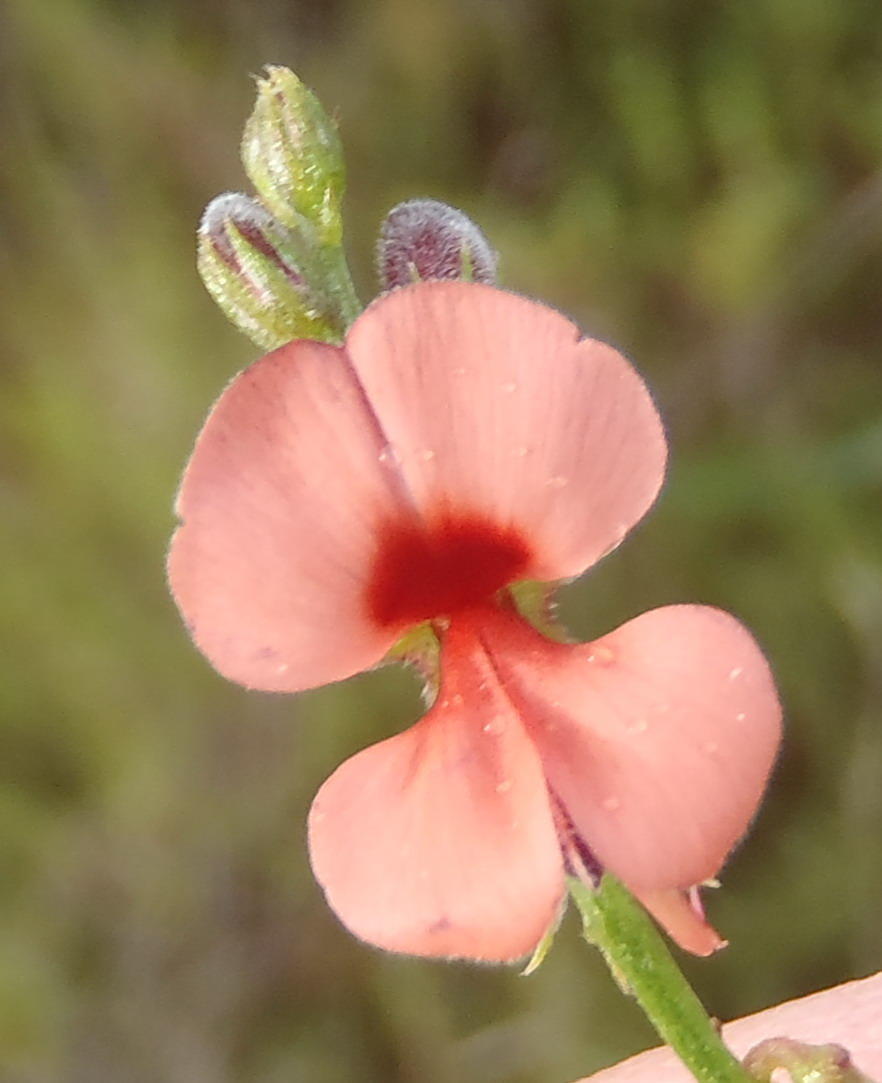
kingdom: Plantae
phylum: Tracheophyta
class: Magnoliopsida
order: Fabales
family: Fabaceae
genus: Indigofera
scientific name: Indigofera heterophylla
